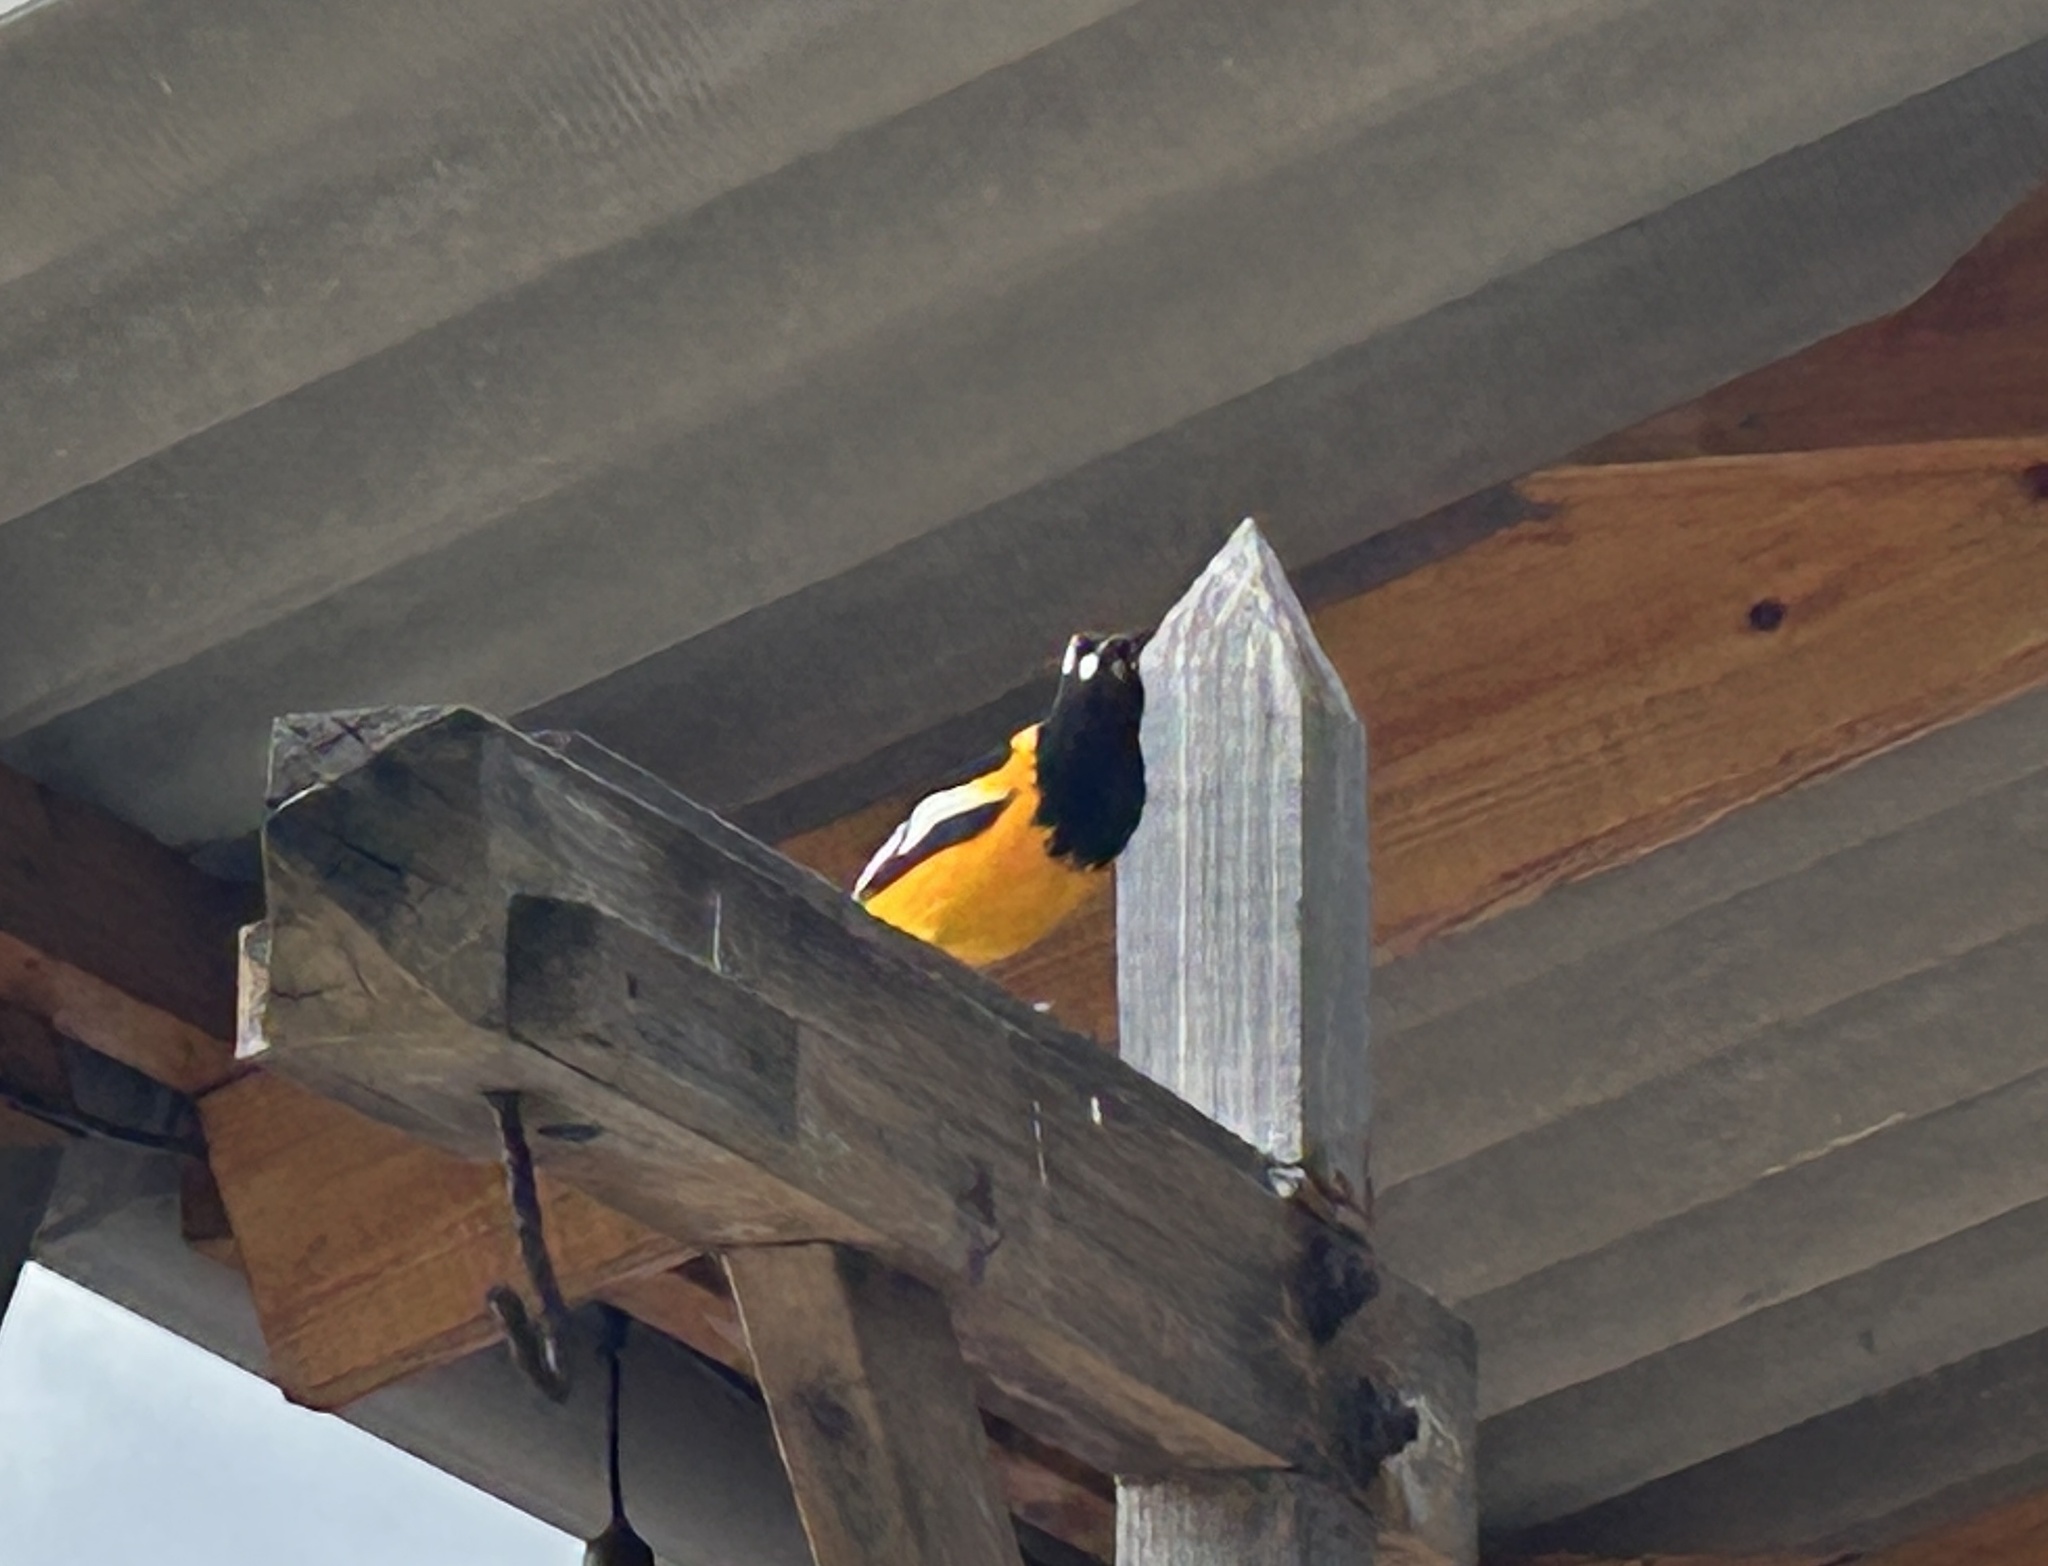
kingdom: Animalia
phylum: Chordata
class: Aves
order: Passeriformes
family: Icteridae
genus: Icterus
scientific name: Icterus icterus
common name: Venezuelan troupial
